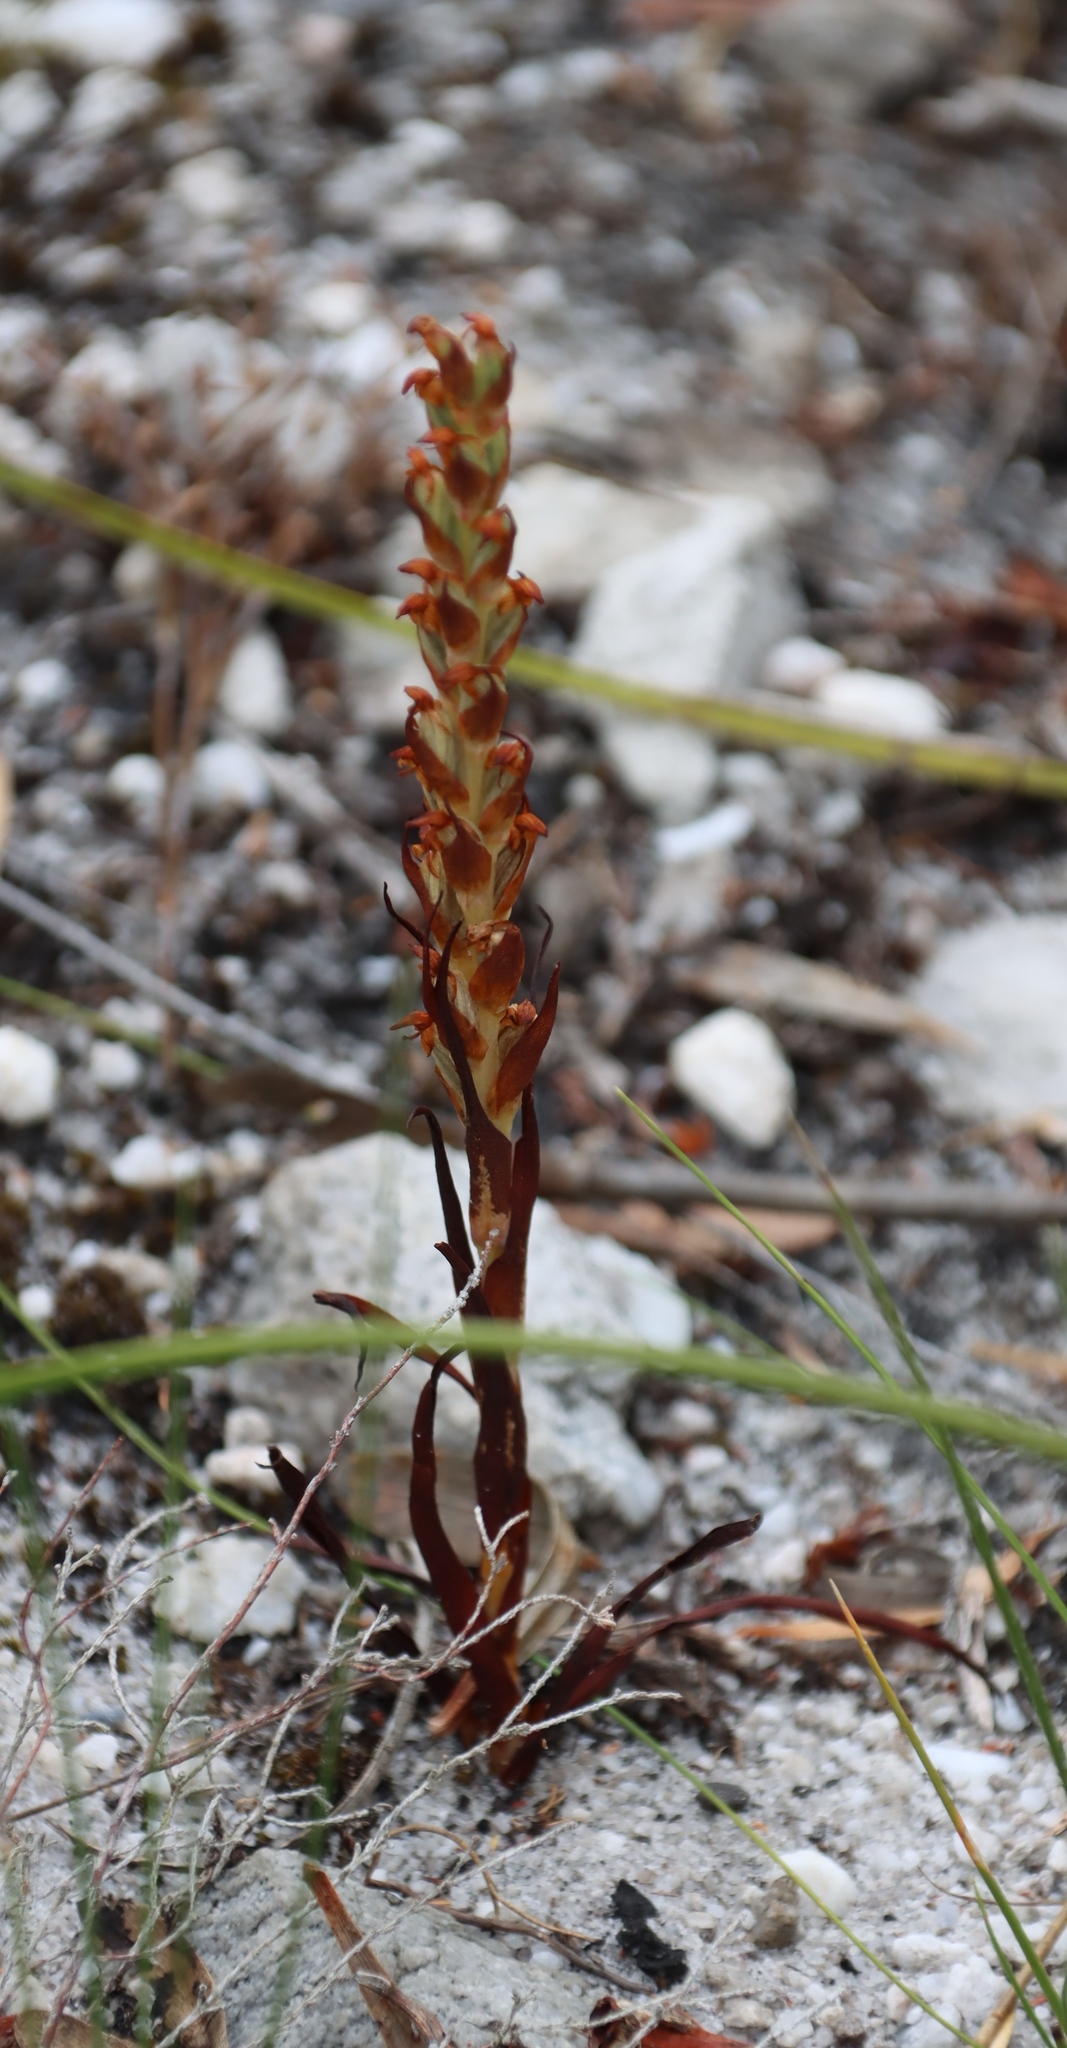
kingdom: Plantae
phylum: Tracheophyta
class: Liliopsida
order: Asparagales
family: Orchidaceae
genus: Disa
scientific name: Disa bracteata
